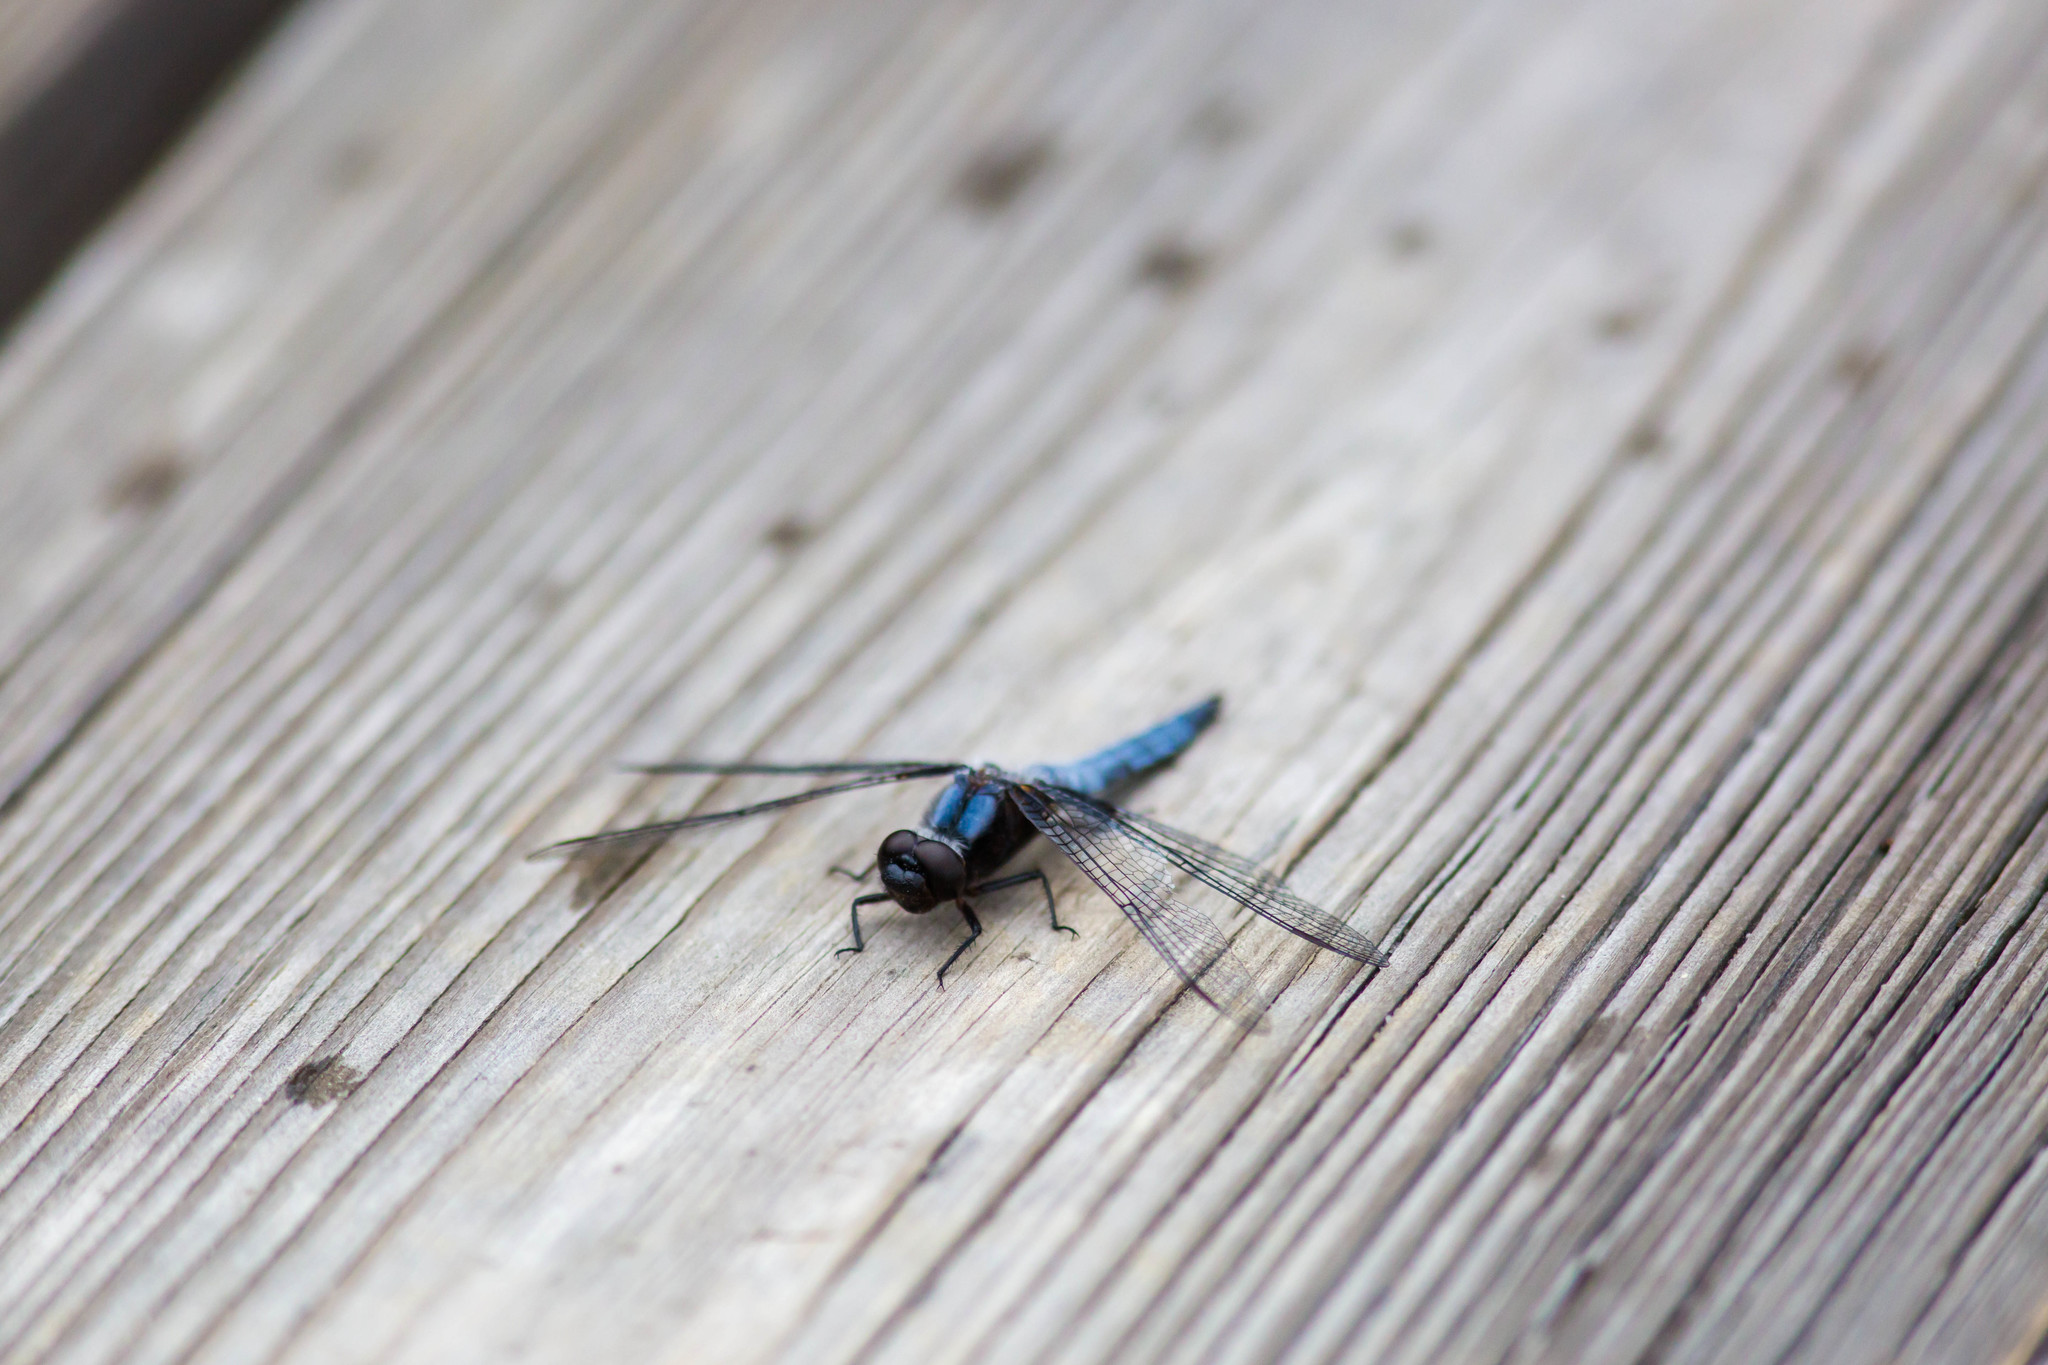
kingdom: Animalia
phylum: Arthropoda
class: Insecta
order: Odonata
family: Libellulidae
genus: Ladona
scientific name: Ladona deplanata
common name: Blue corporal
